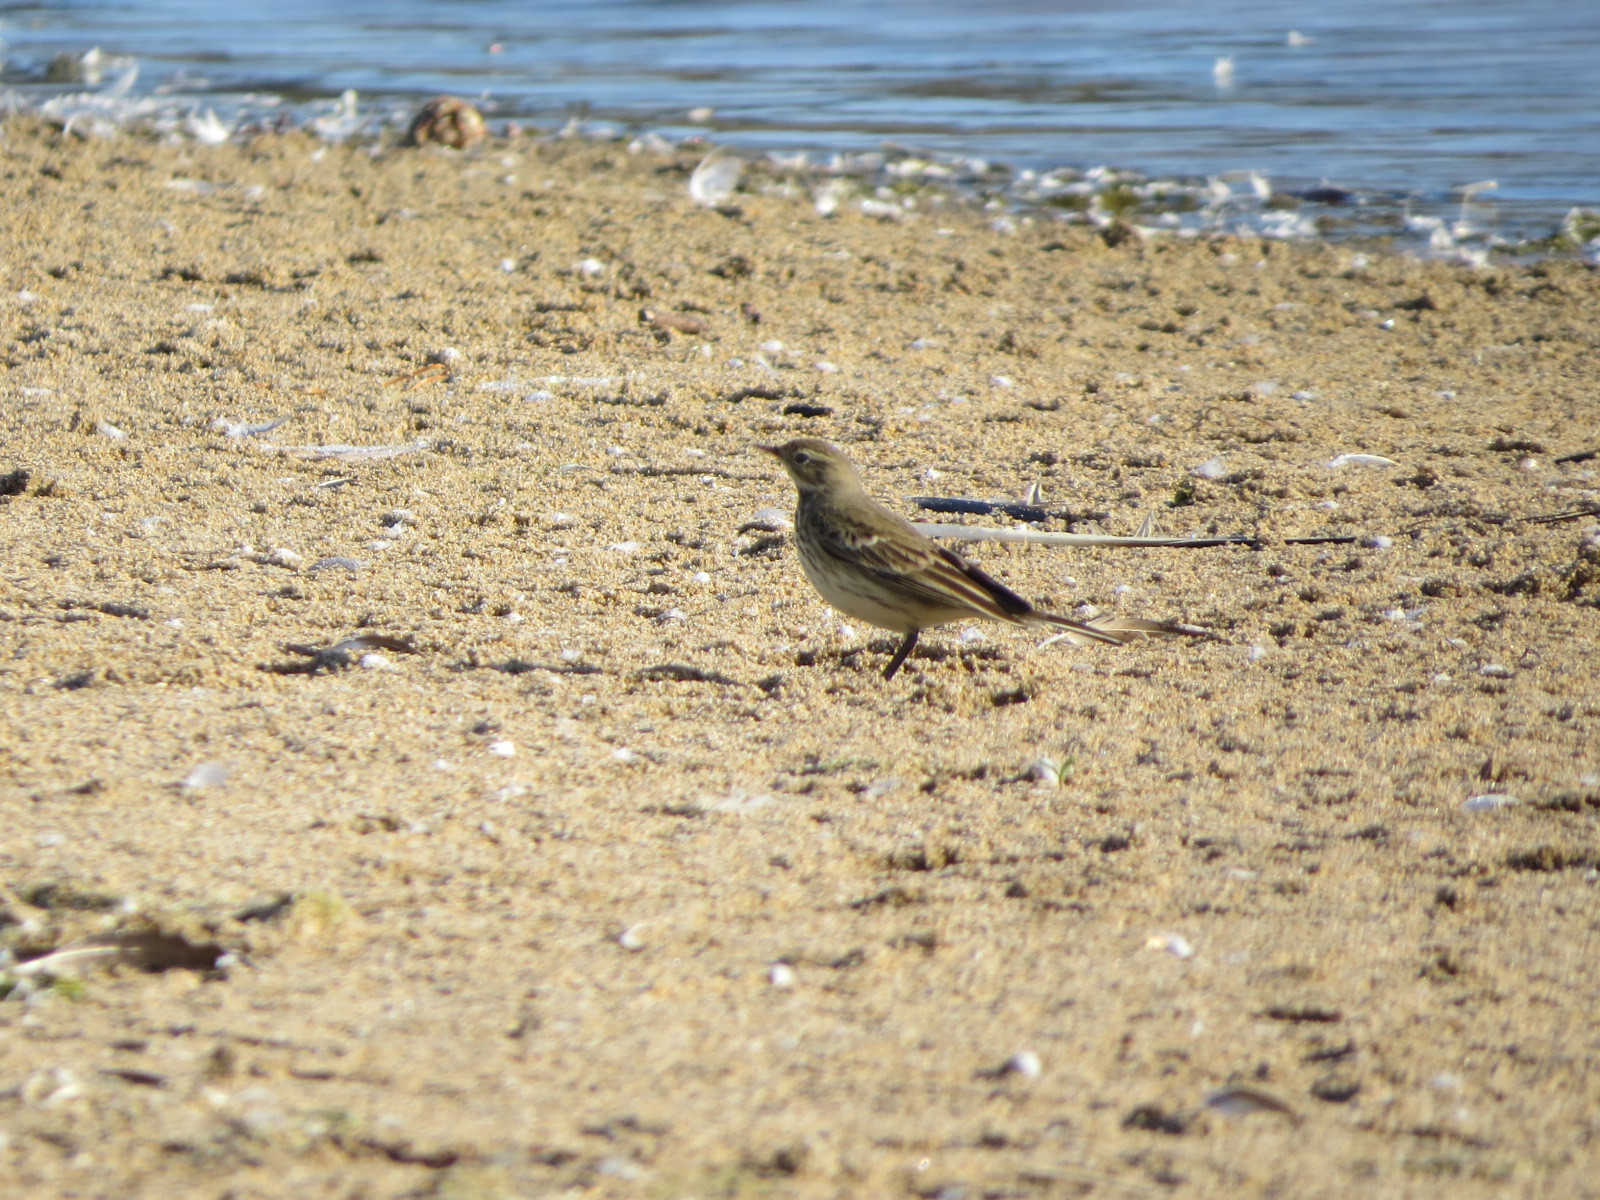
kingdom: Animalia
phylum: Chordata
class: Aves
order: Passeriformes
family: Motacillidae
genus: Anthus
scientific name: Anthus rubescens
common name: Buff-bellied pipit
